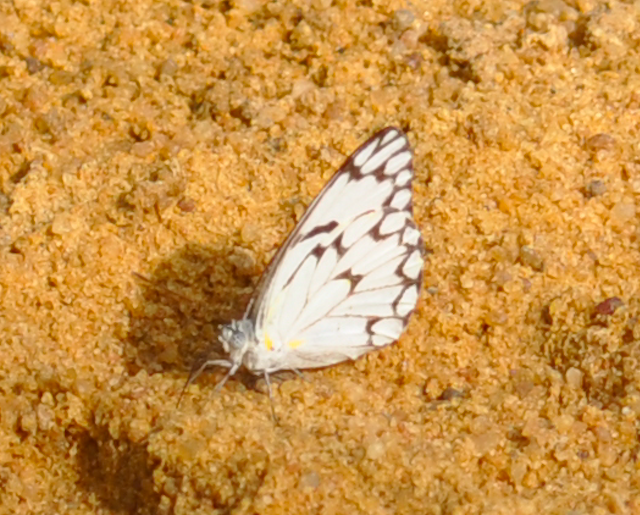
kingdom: Animalia
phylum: Arthropoda
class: Insecta
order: Lepidoptera
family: Pieridae
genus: Belenois
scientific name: Belenois gradidieri
